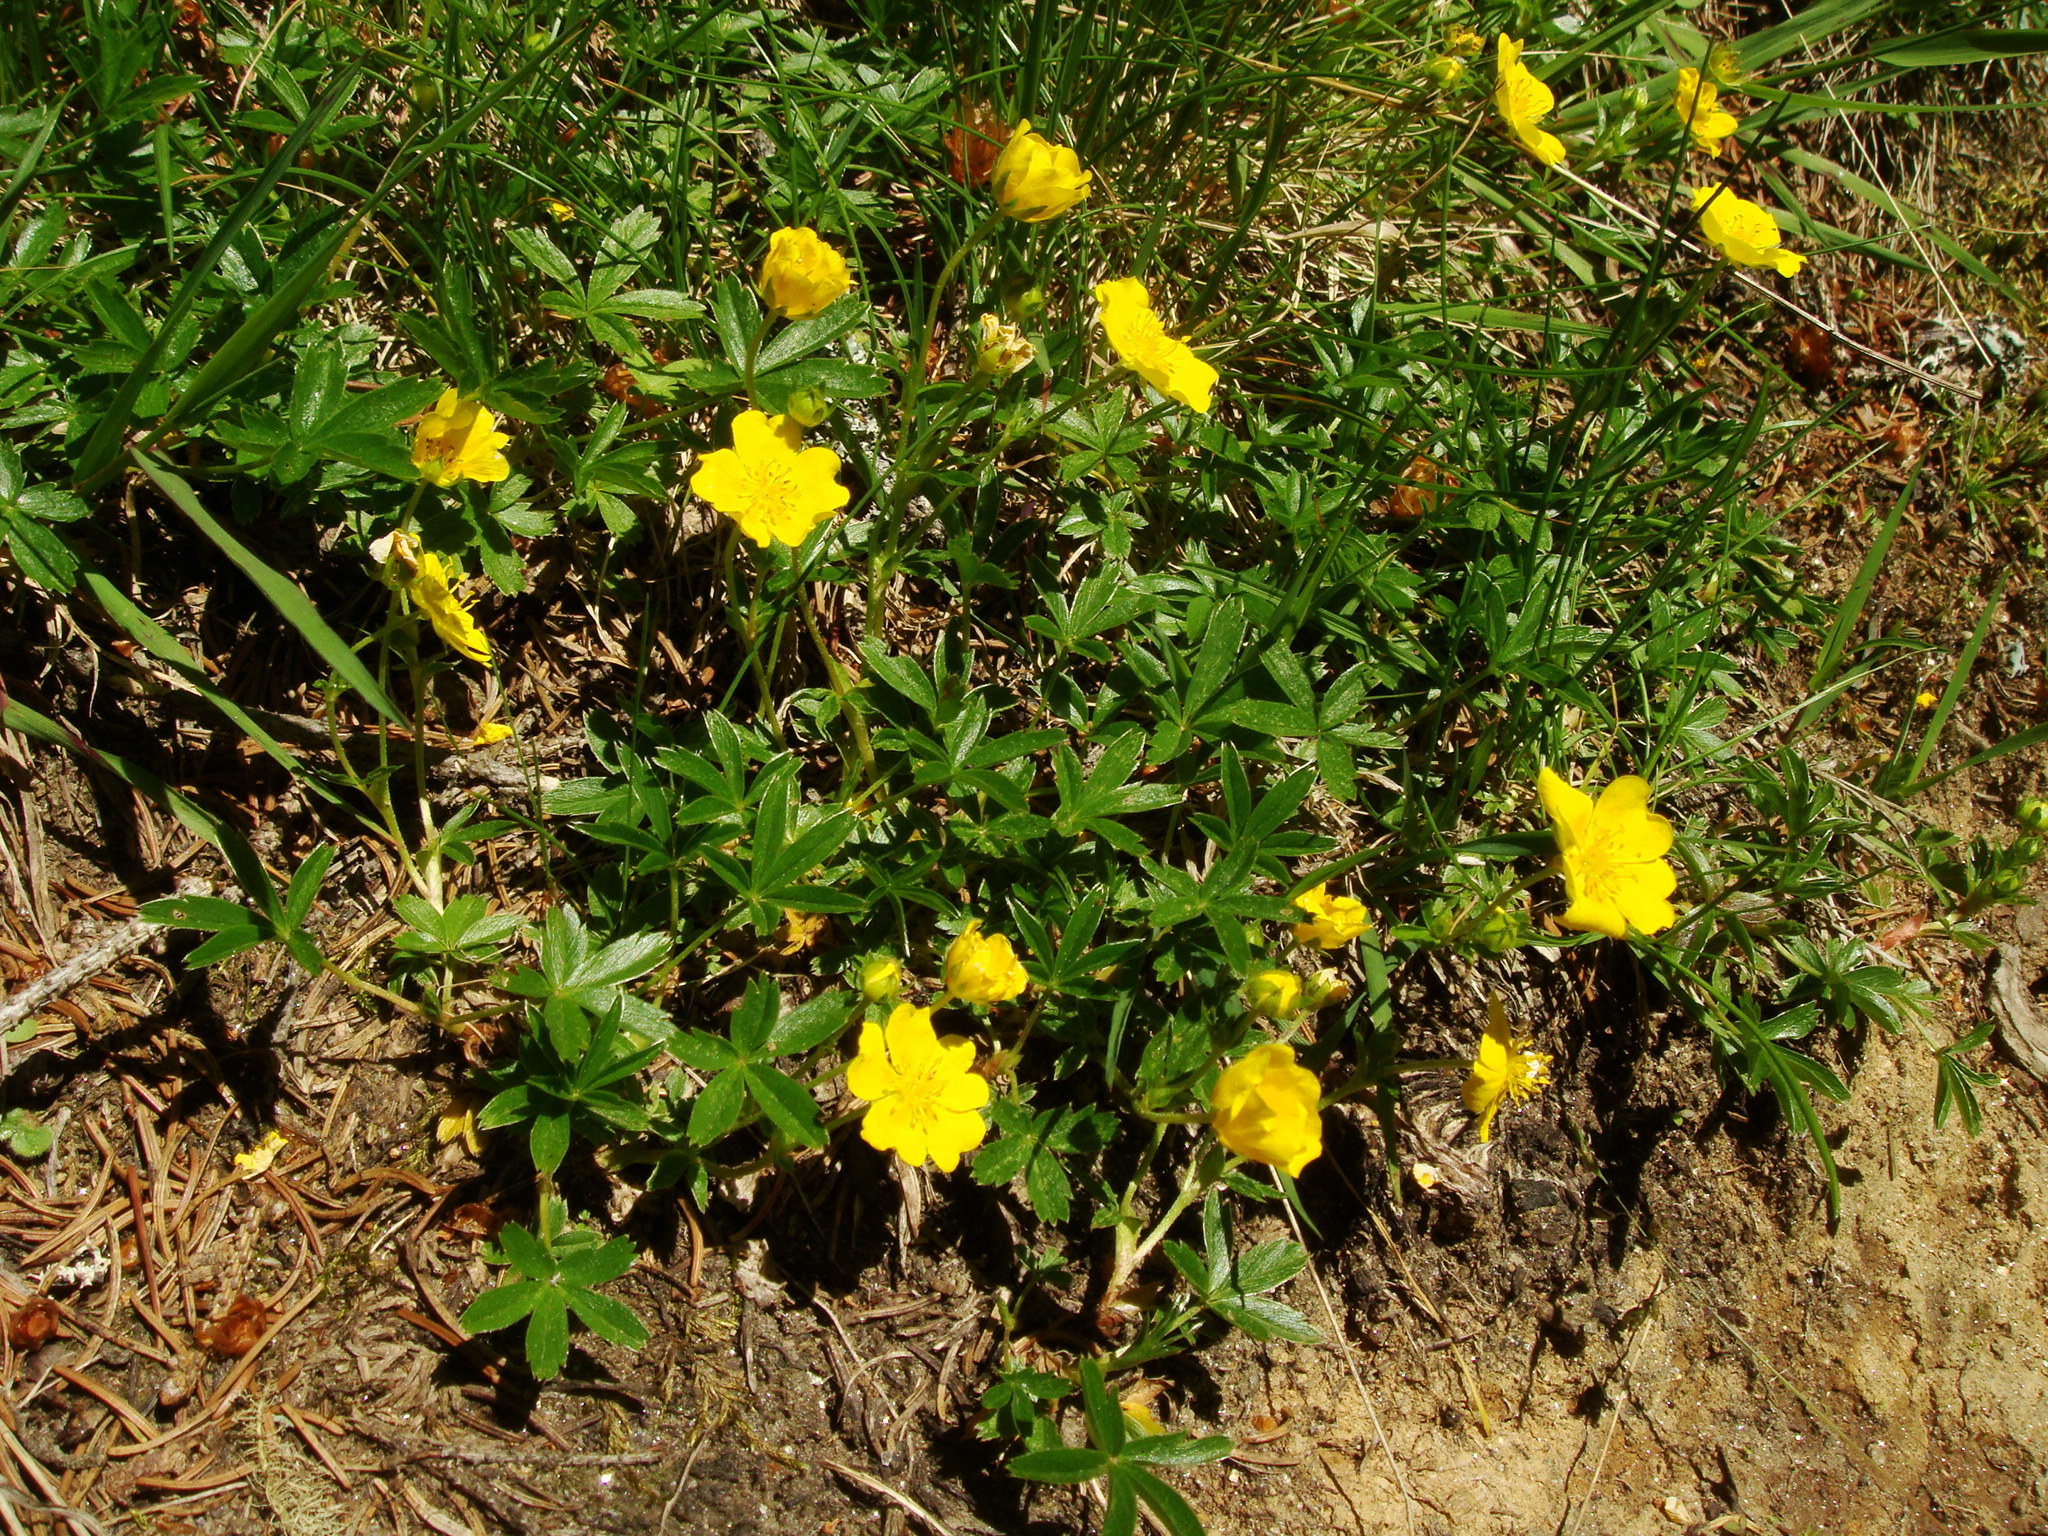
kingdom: Plantae
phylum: Tracheophyta
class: Magnoliopsida
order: Rosales
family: Rosaceae
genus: Potentilla
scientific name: Potentilla aurea
